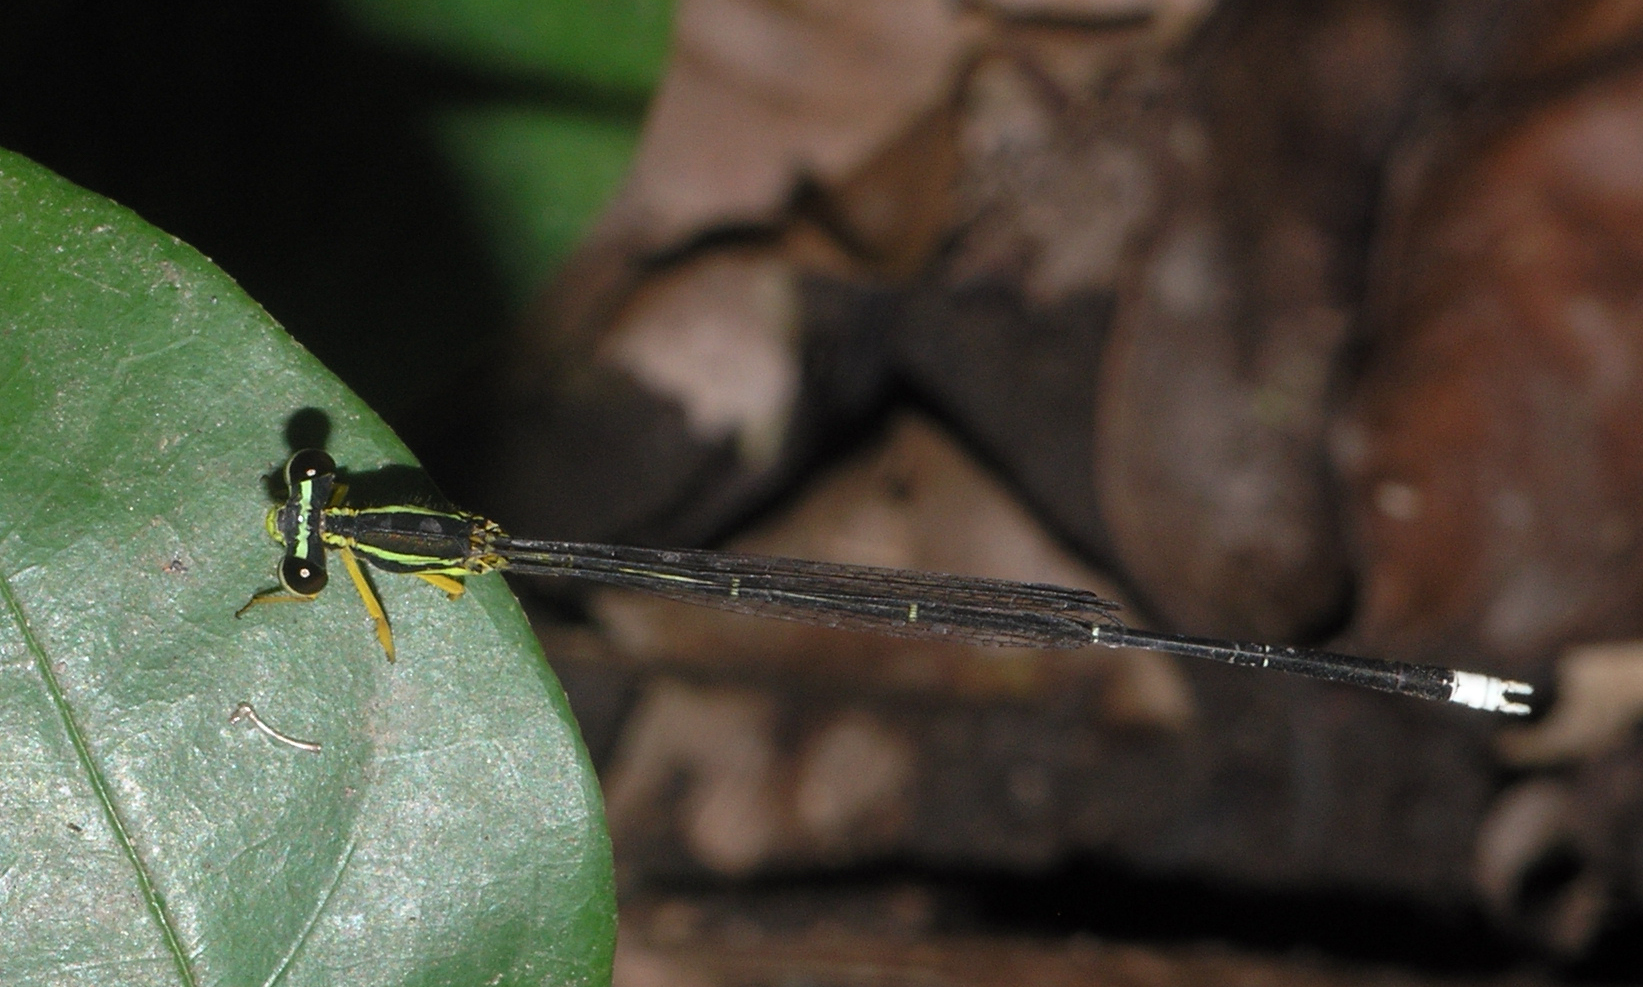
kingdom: Animalia
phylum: Arthropoda
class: Insecta
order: Odonata
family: Platycnemididae
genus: Copera
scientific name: Copera marginipes
